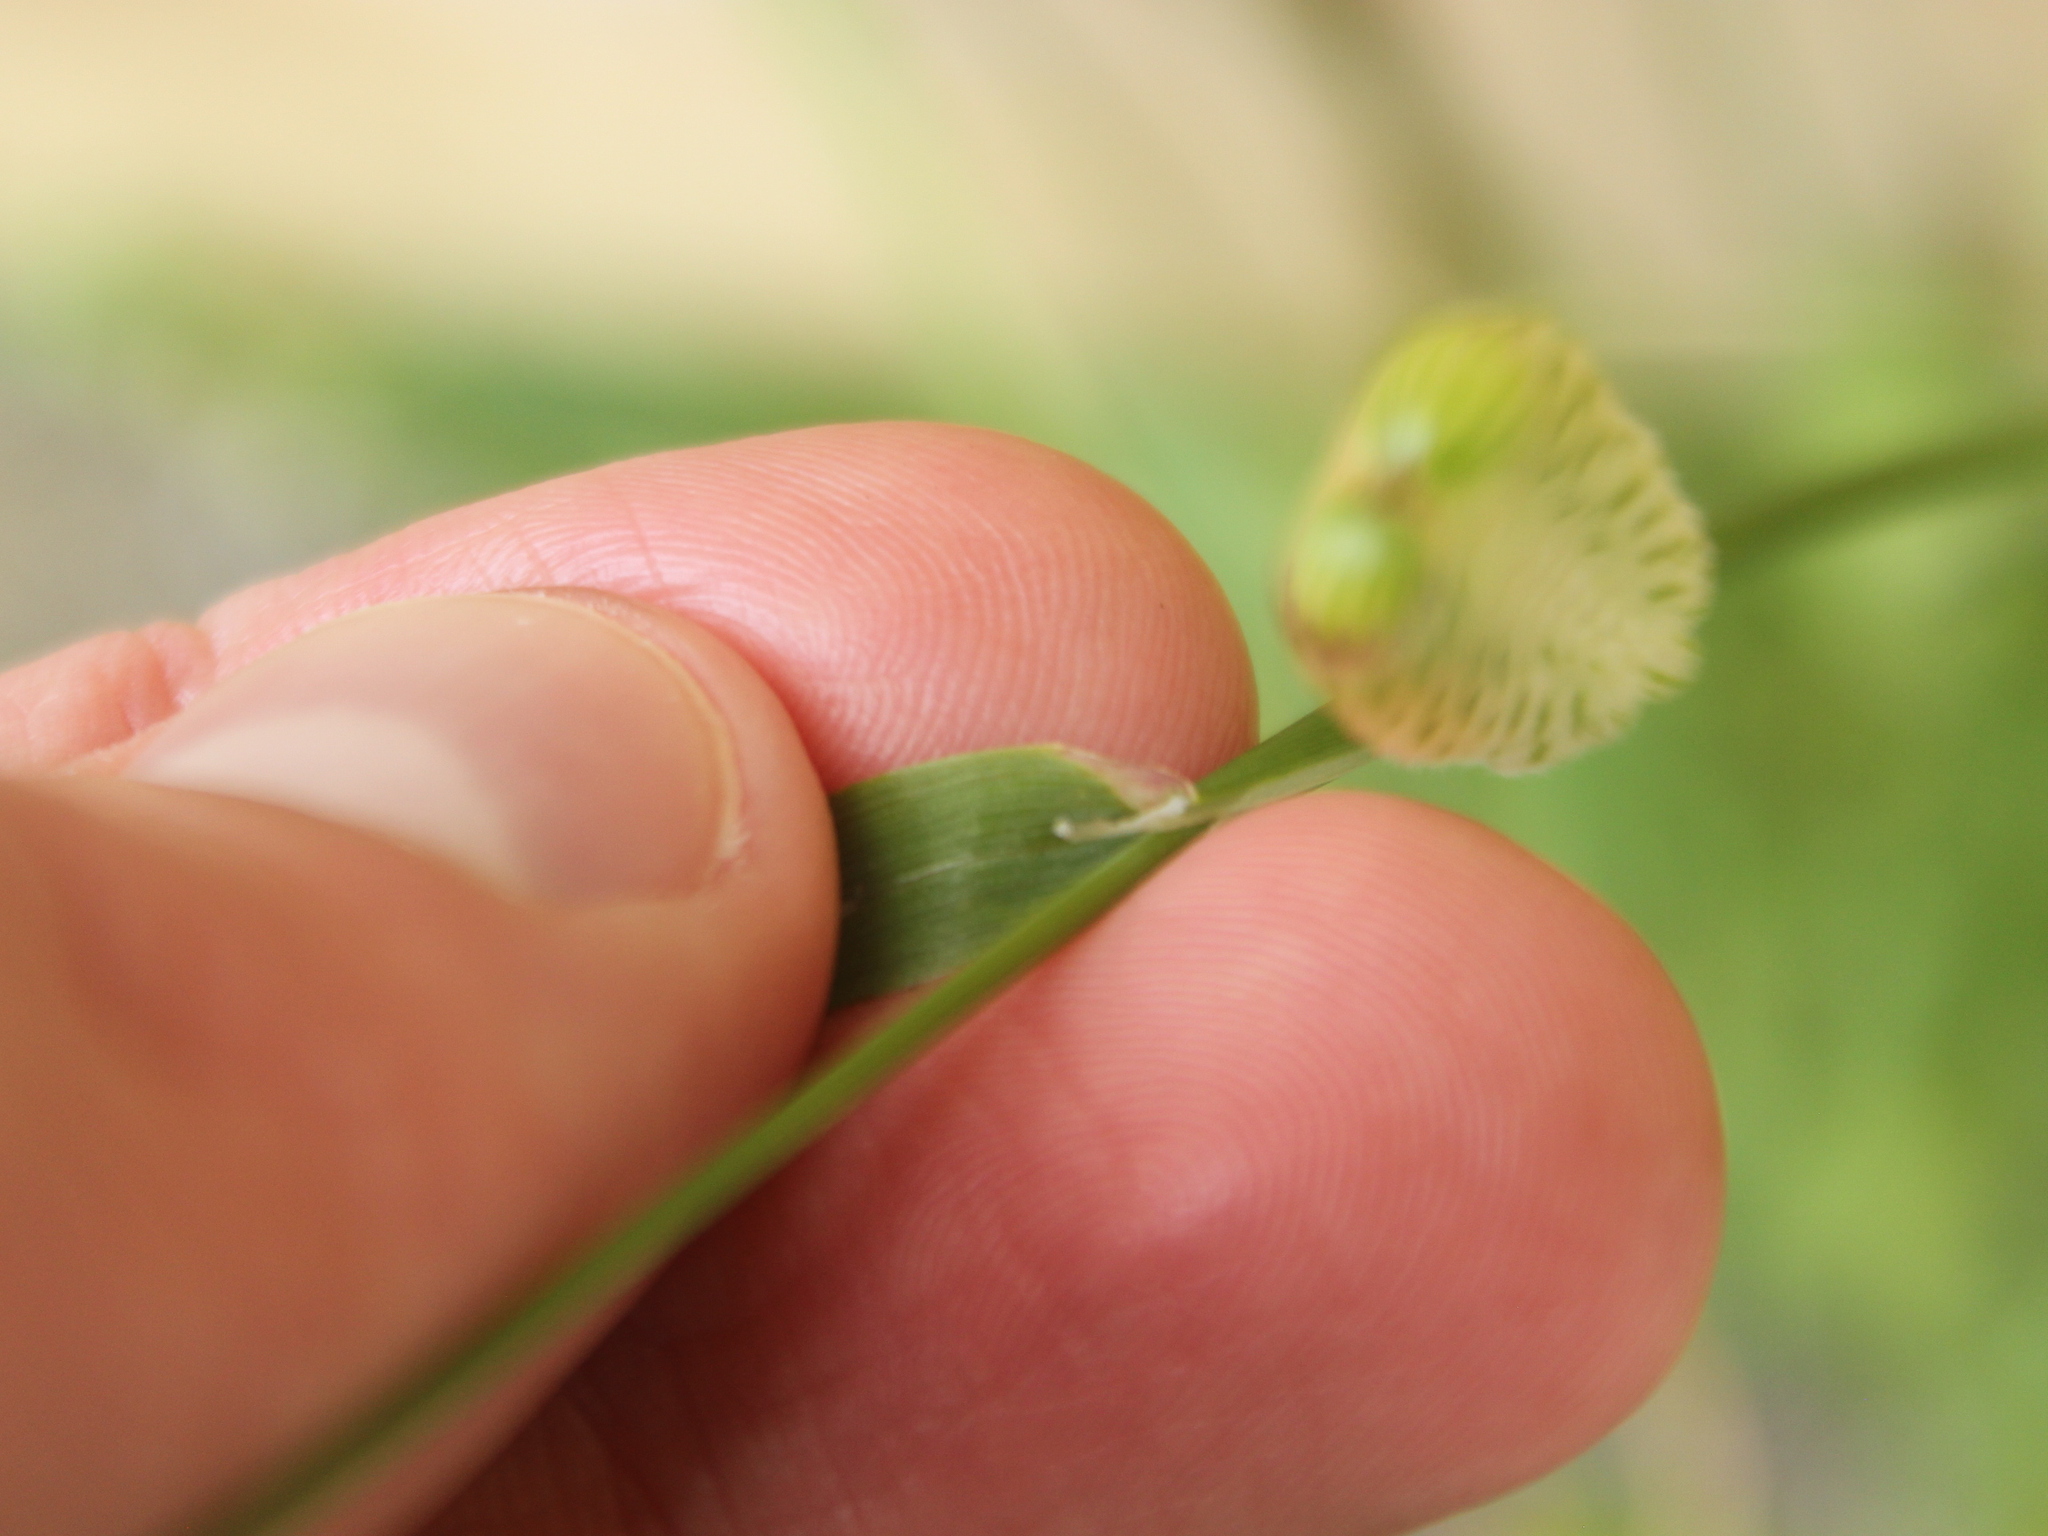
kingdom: Plantae
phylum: Tracheophyta
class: Liliopsida
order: Poales
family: Poaceae
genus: Briza
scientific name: Briza maxima
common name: Big quakinggrass
